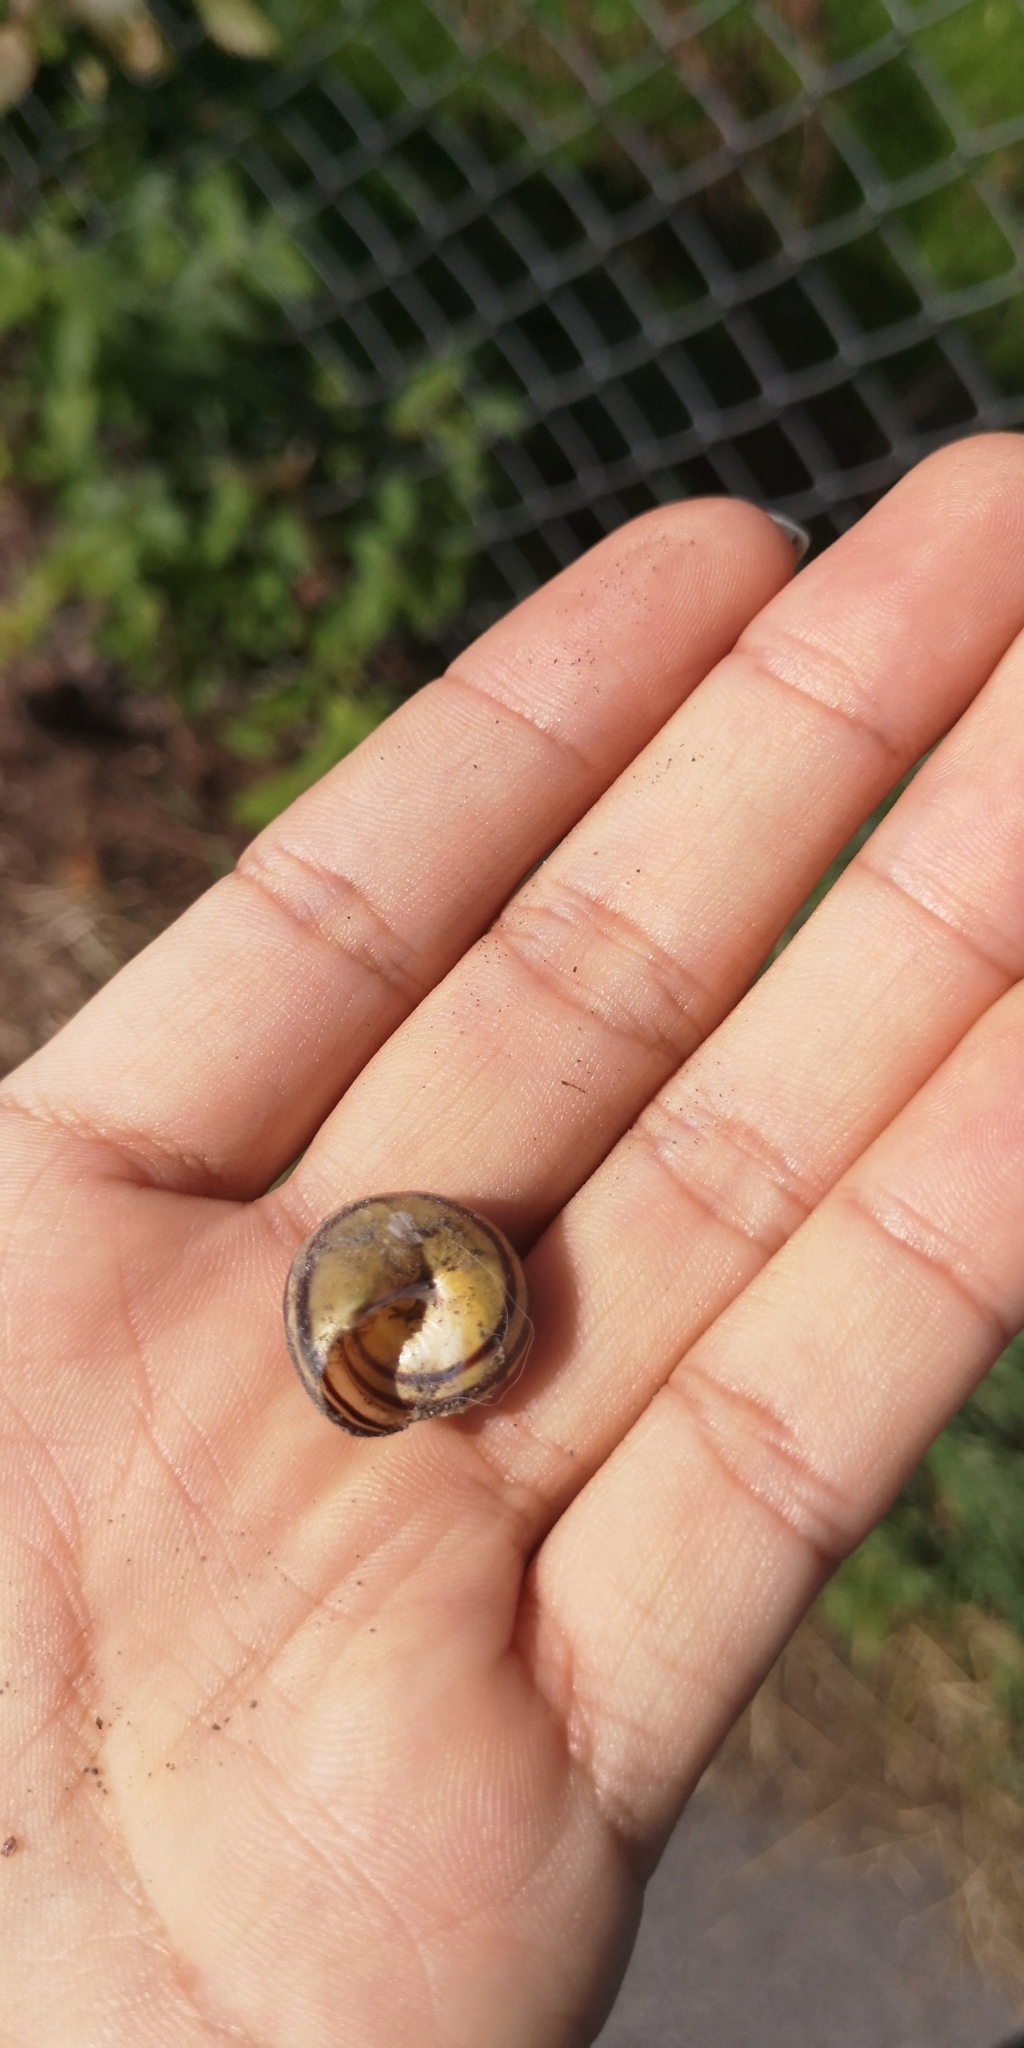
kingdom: Animalia
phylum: Mollusca
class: Gastropoda
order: Stylommatophora
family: Helicidae
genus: Cepaea
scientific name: Cepaea hortensis
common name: White-lip gardensnail
